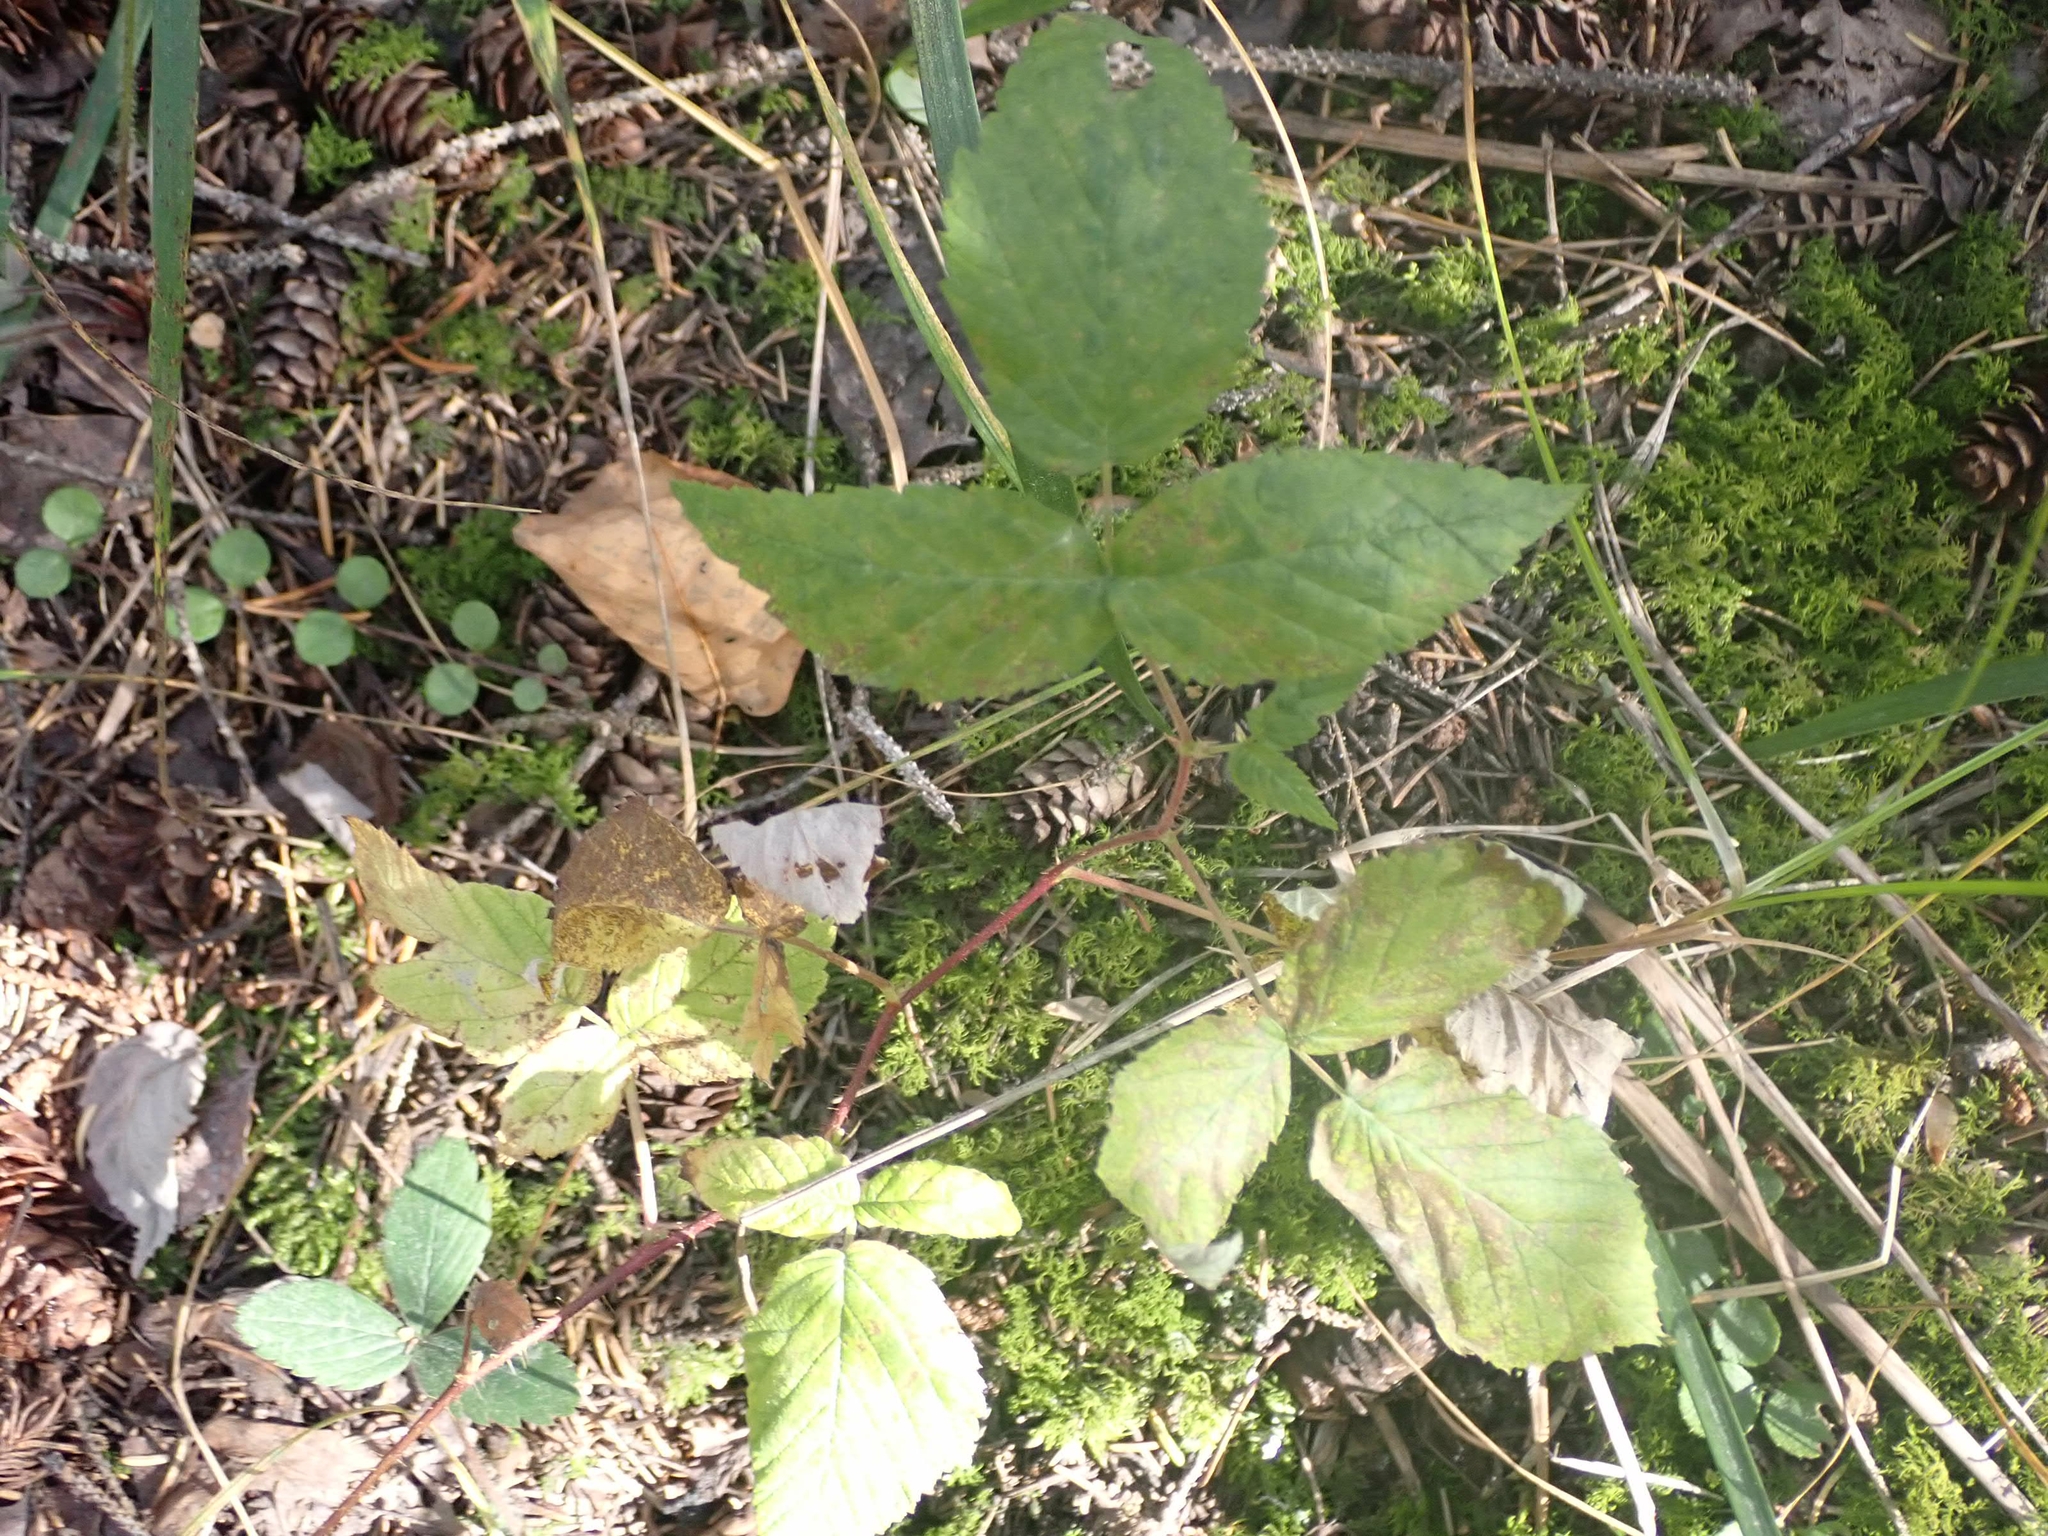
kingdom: Plantae
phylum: Tracheophyta
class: Magnoliopsida
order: Rosales
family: Rosaceae
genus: Rubus
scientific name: Rubus idaeus
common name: Raspberry
